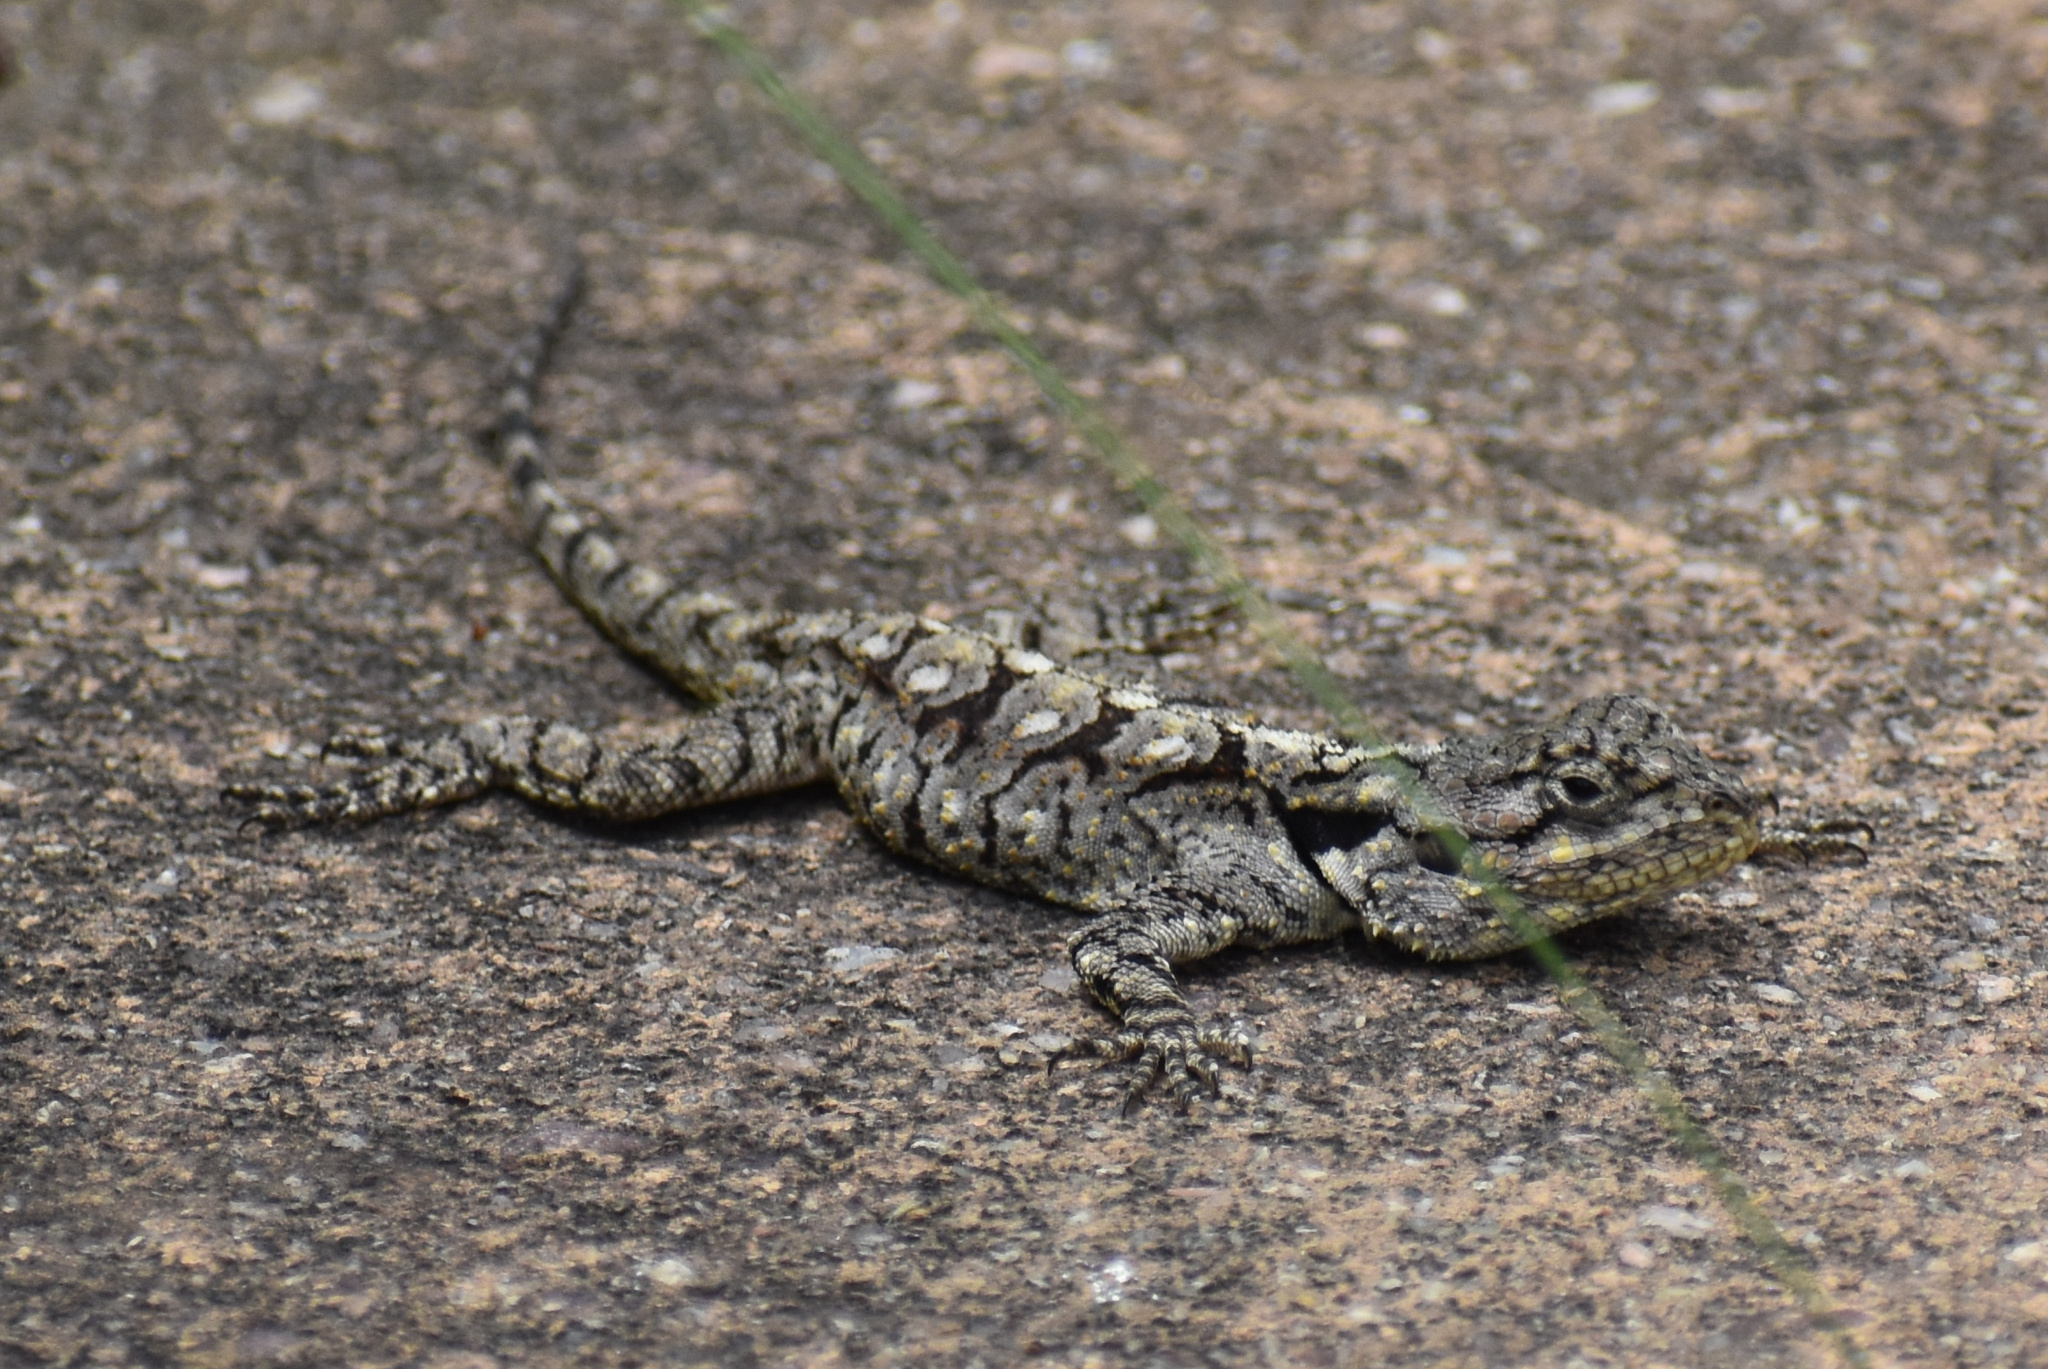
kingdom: Animalia
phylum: Chordata
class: Squamata
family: Agamidae
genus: Acanthocercus
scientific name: Acanthocercus atricollis
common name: Southern tree agama
